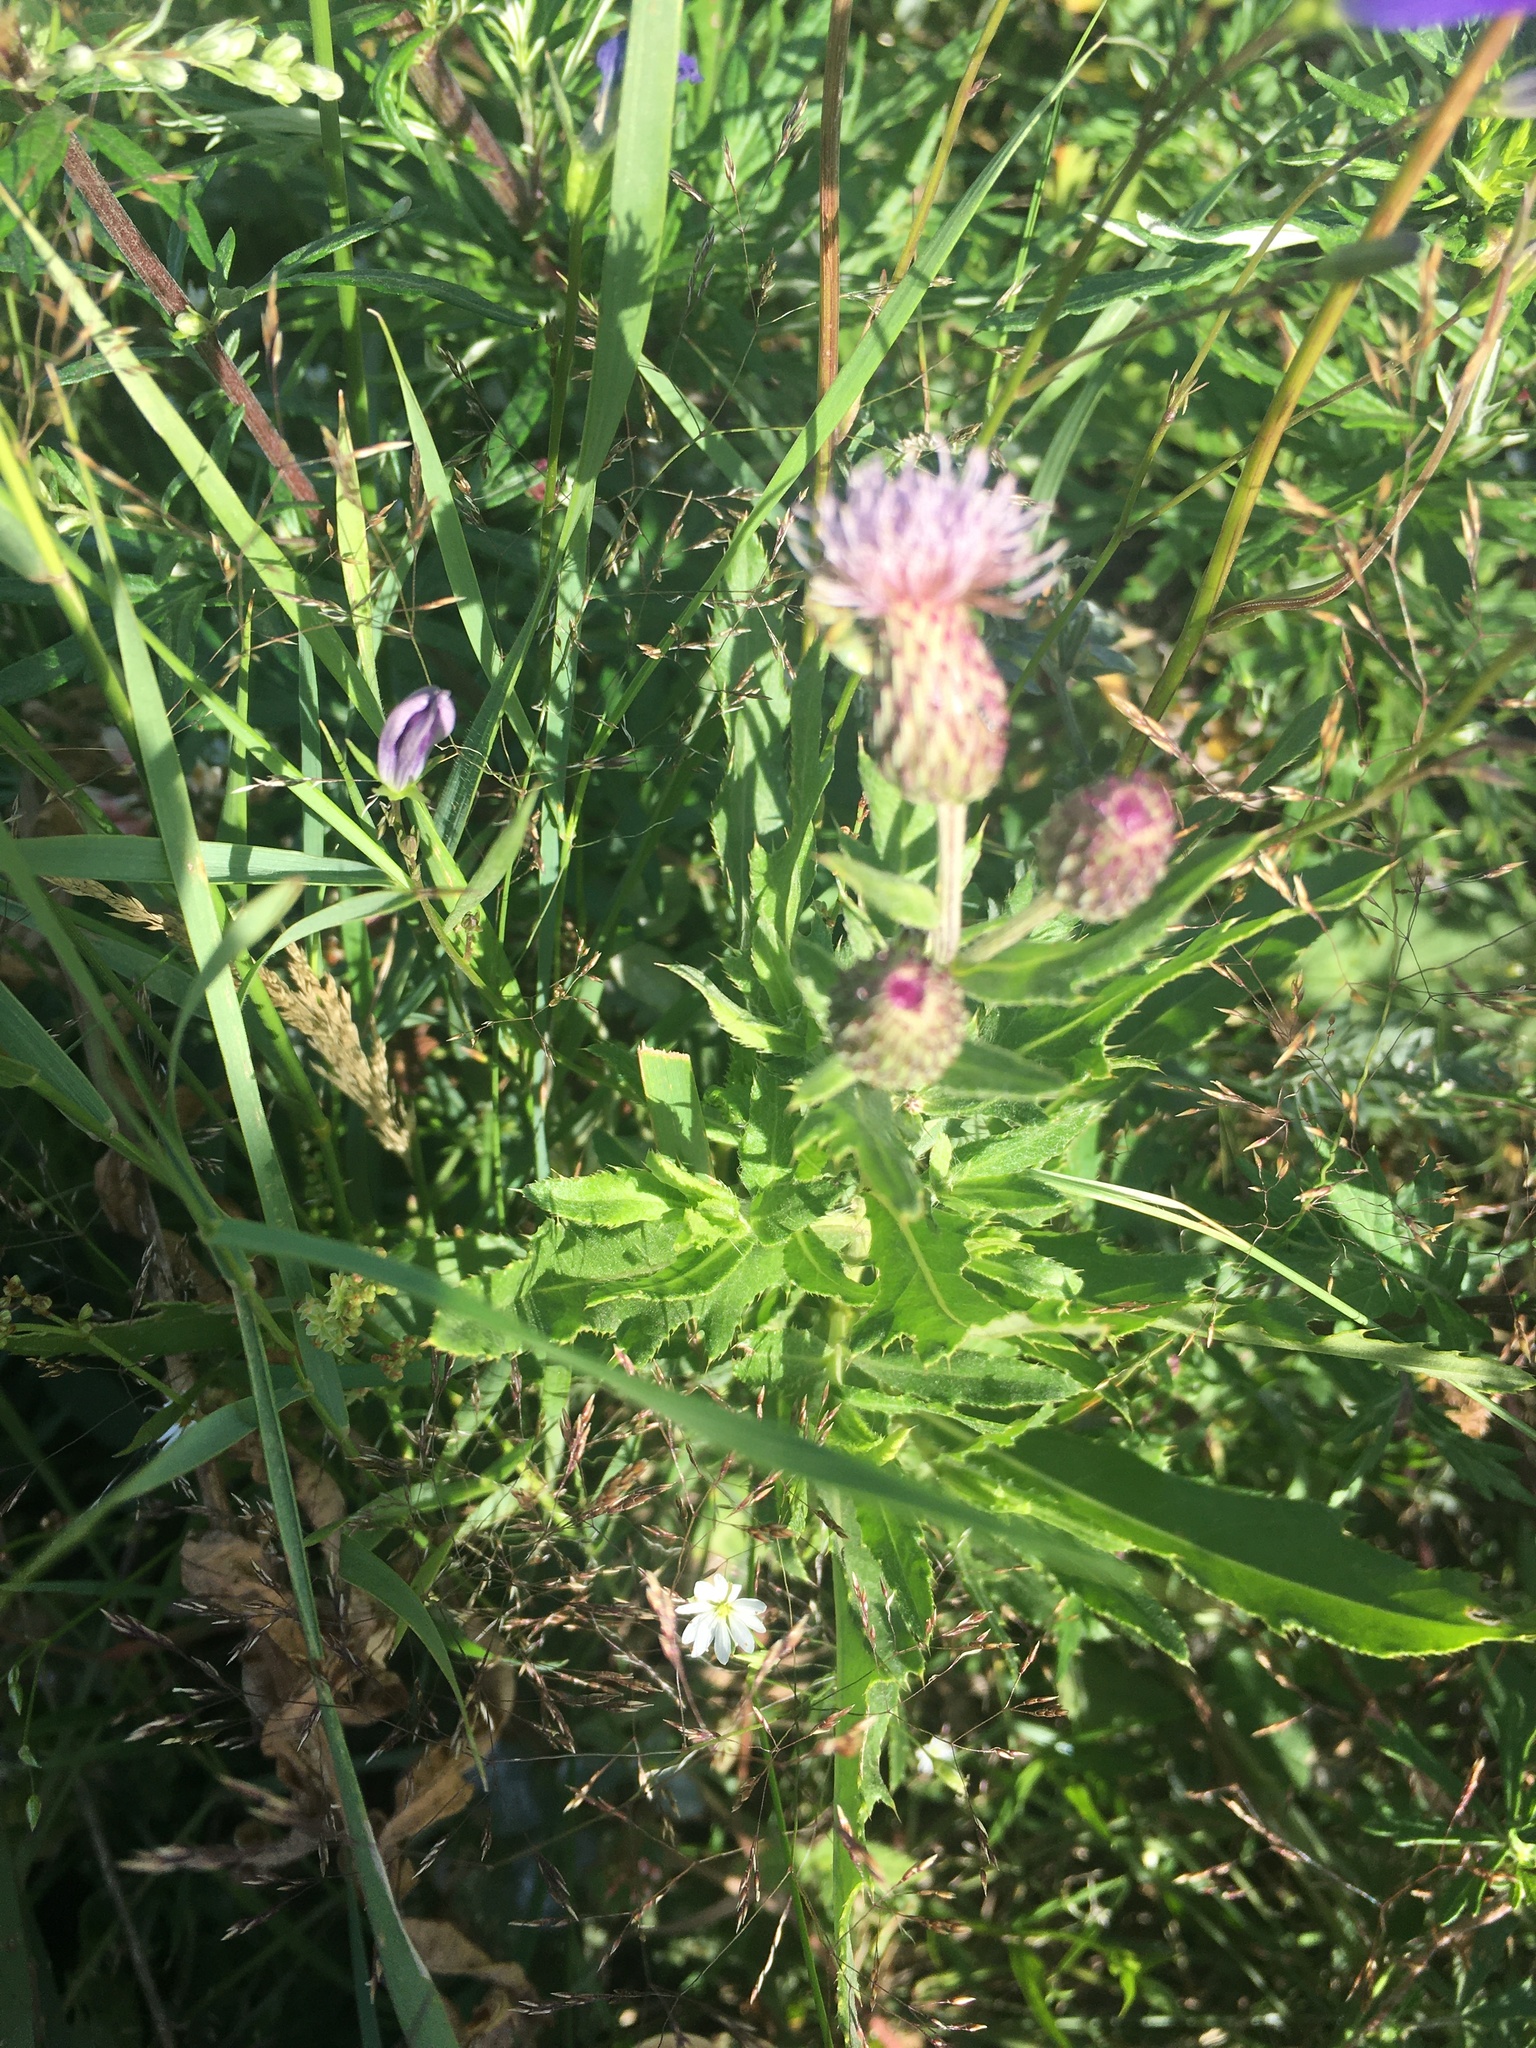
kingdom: Plantae
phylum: Tracheophyta
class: Magnoliopsida
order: Asterales
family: Asteraceae
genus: Cirsium
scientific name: Cirsium arvense
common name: Creeping thistle
